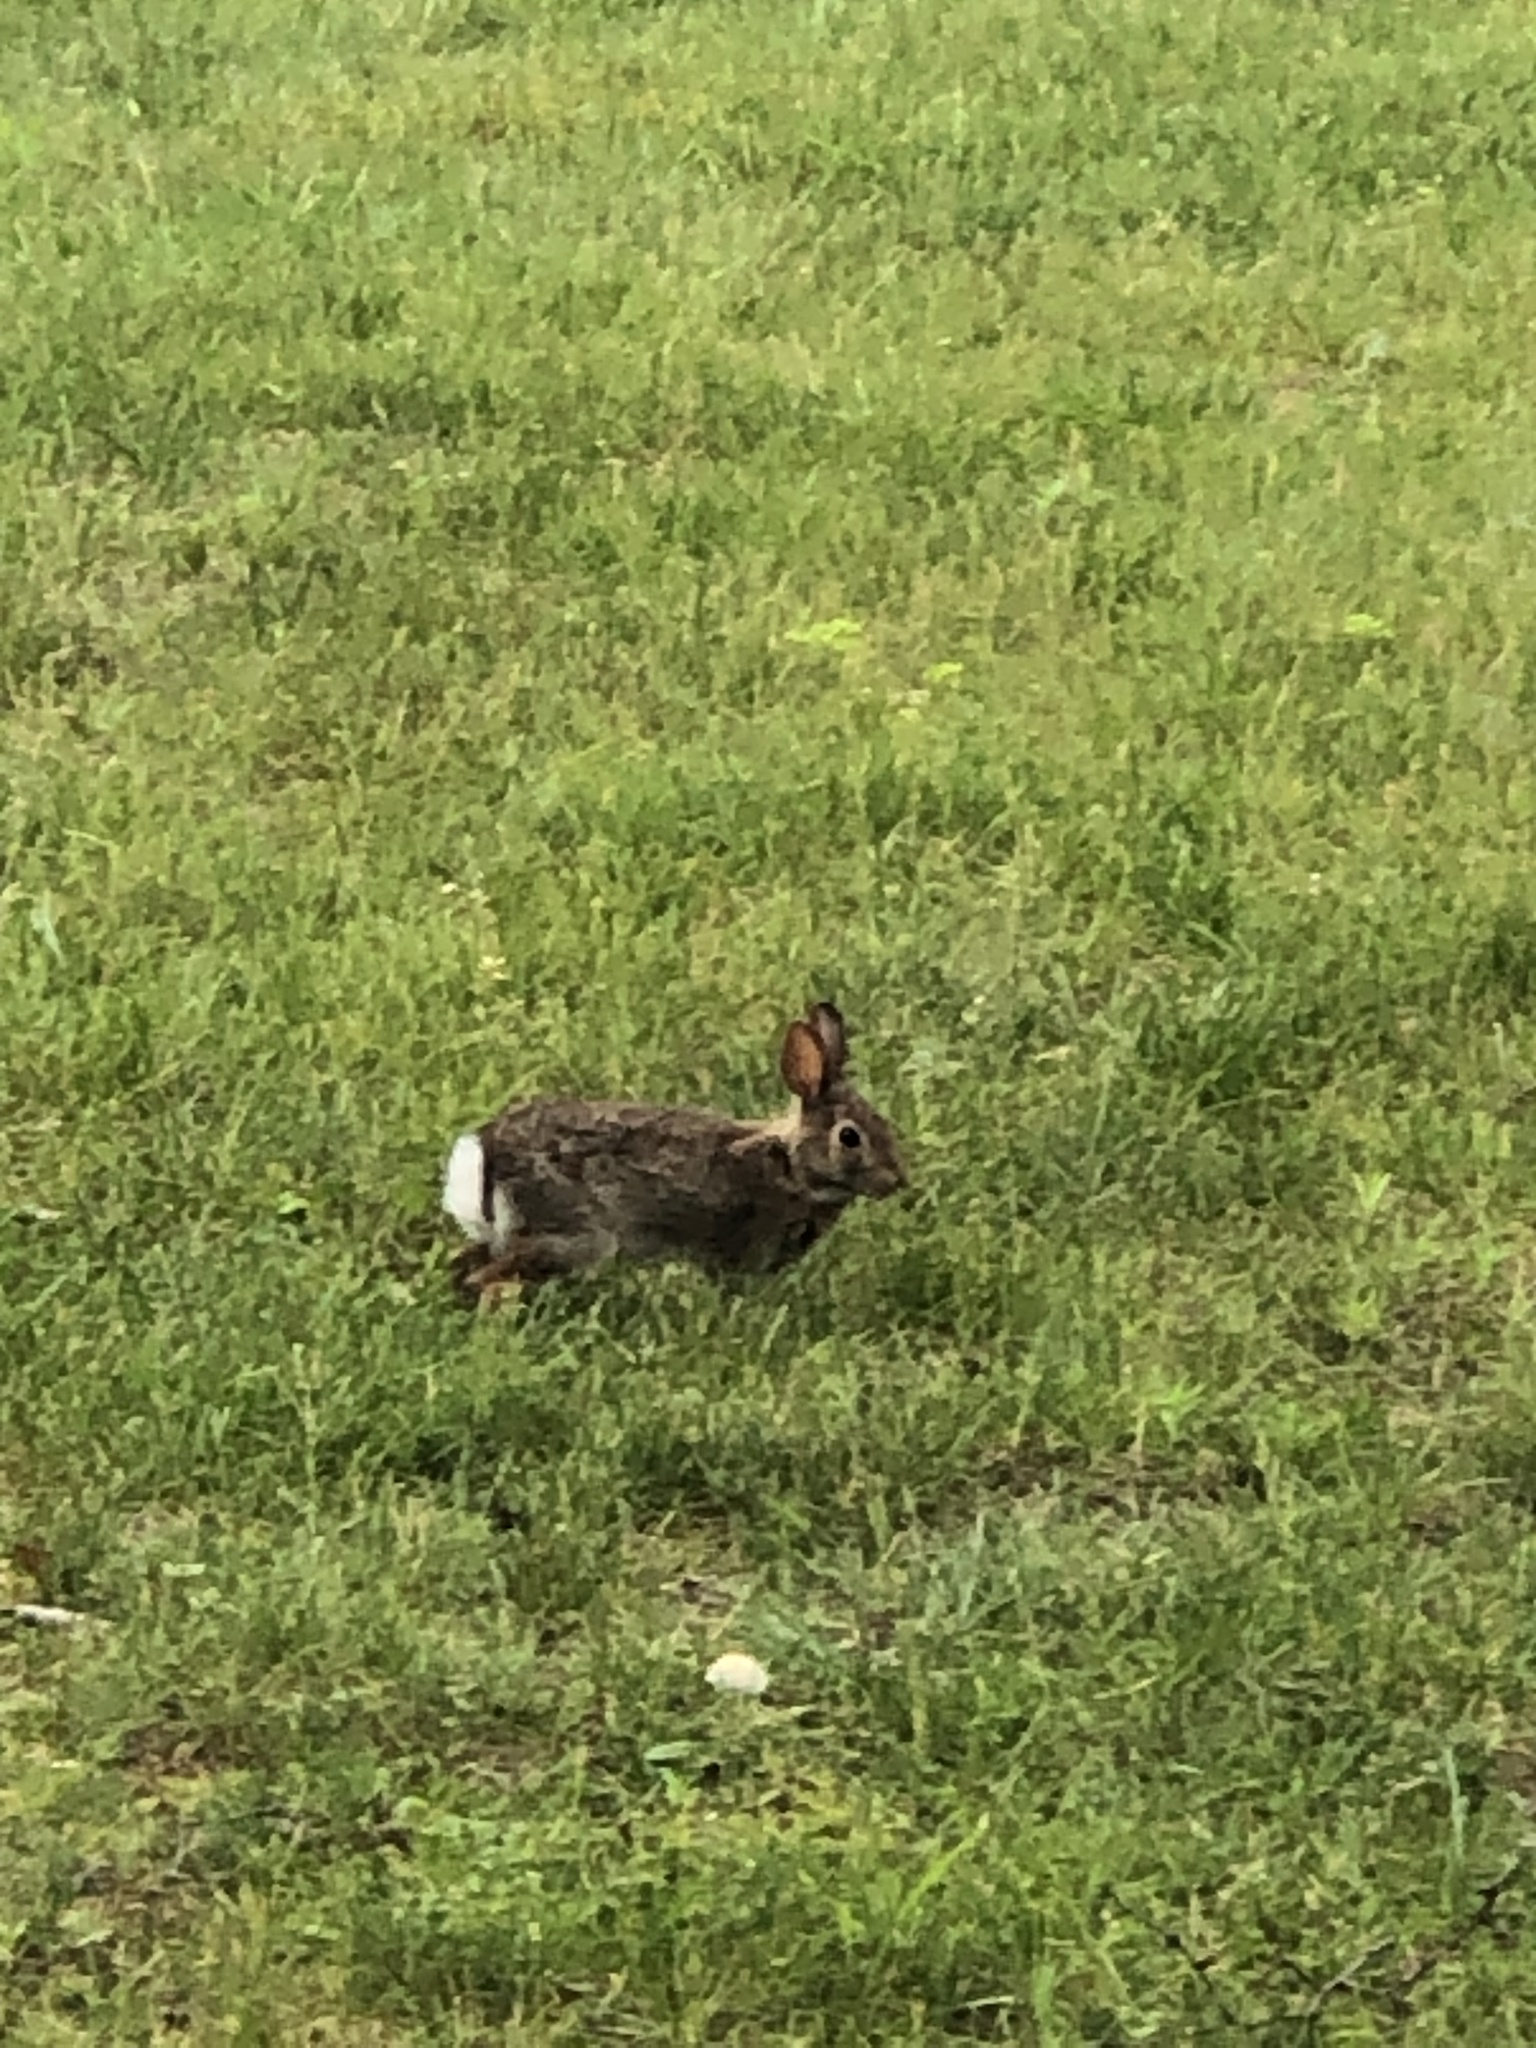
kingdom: Animalia
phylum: Chordata
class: Mammalia
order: Lagomorpha
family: Leporidae
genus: Sylvilagus
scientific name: Sylvilagus floridanus
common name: Eastern cottontail
